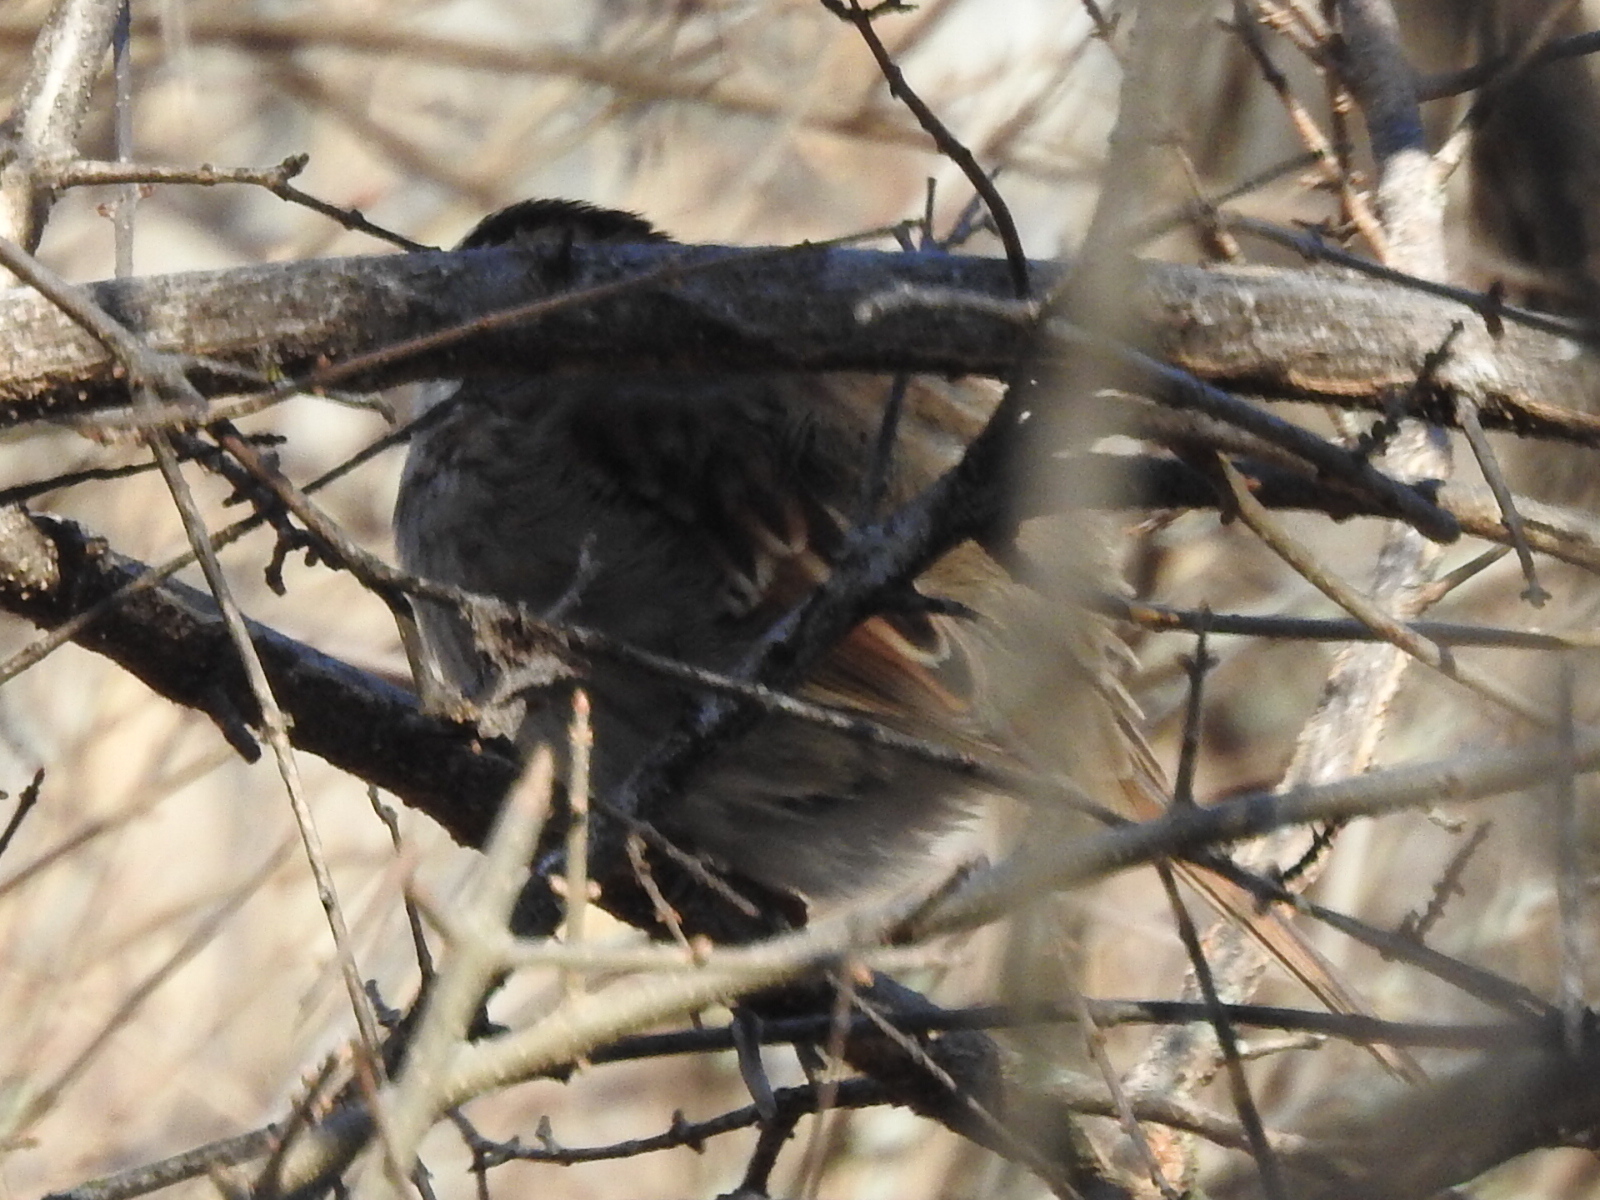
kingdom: Animalia
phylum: Chordata
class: Aves
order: Passeriformes
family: Passerellidae
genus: Zonotrichia
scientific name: Zonotrichia albicollis
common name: White-throated sparrow
